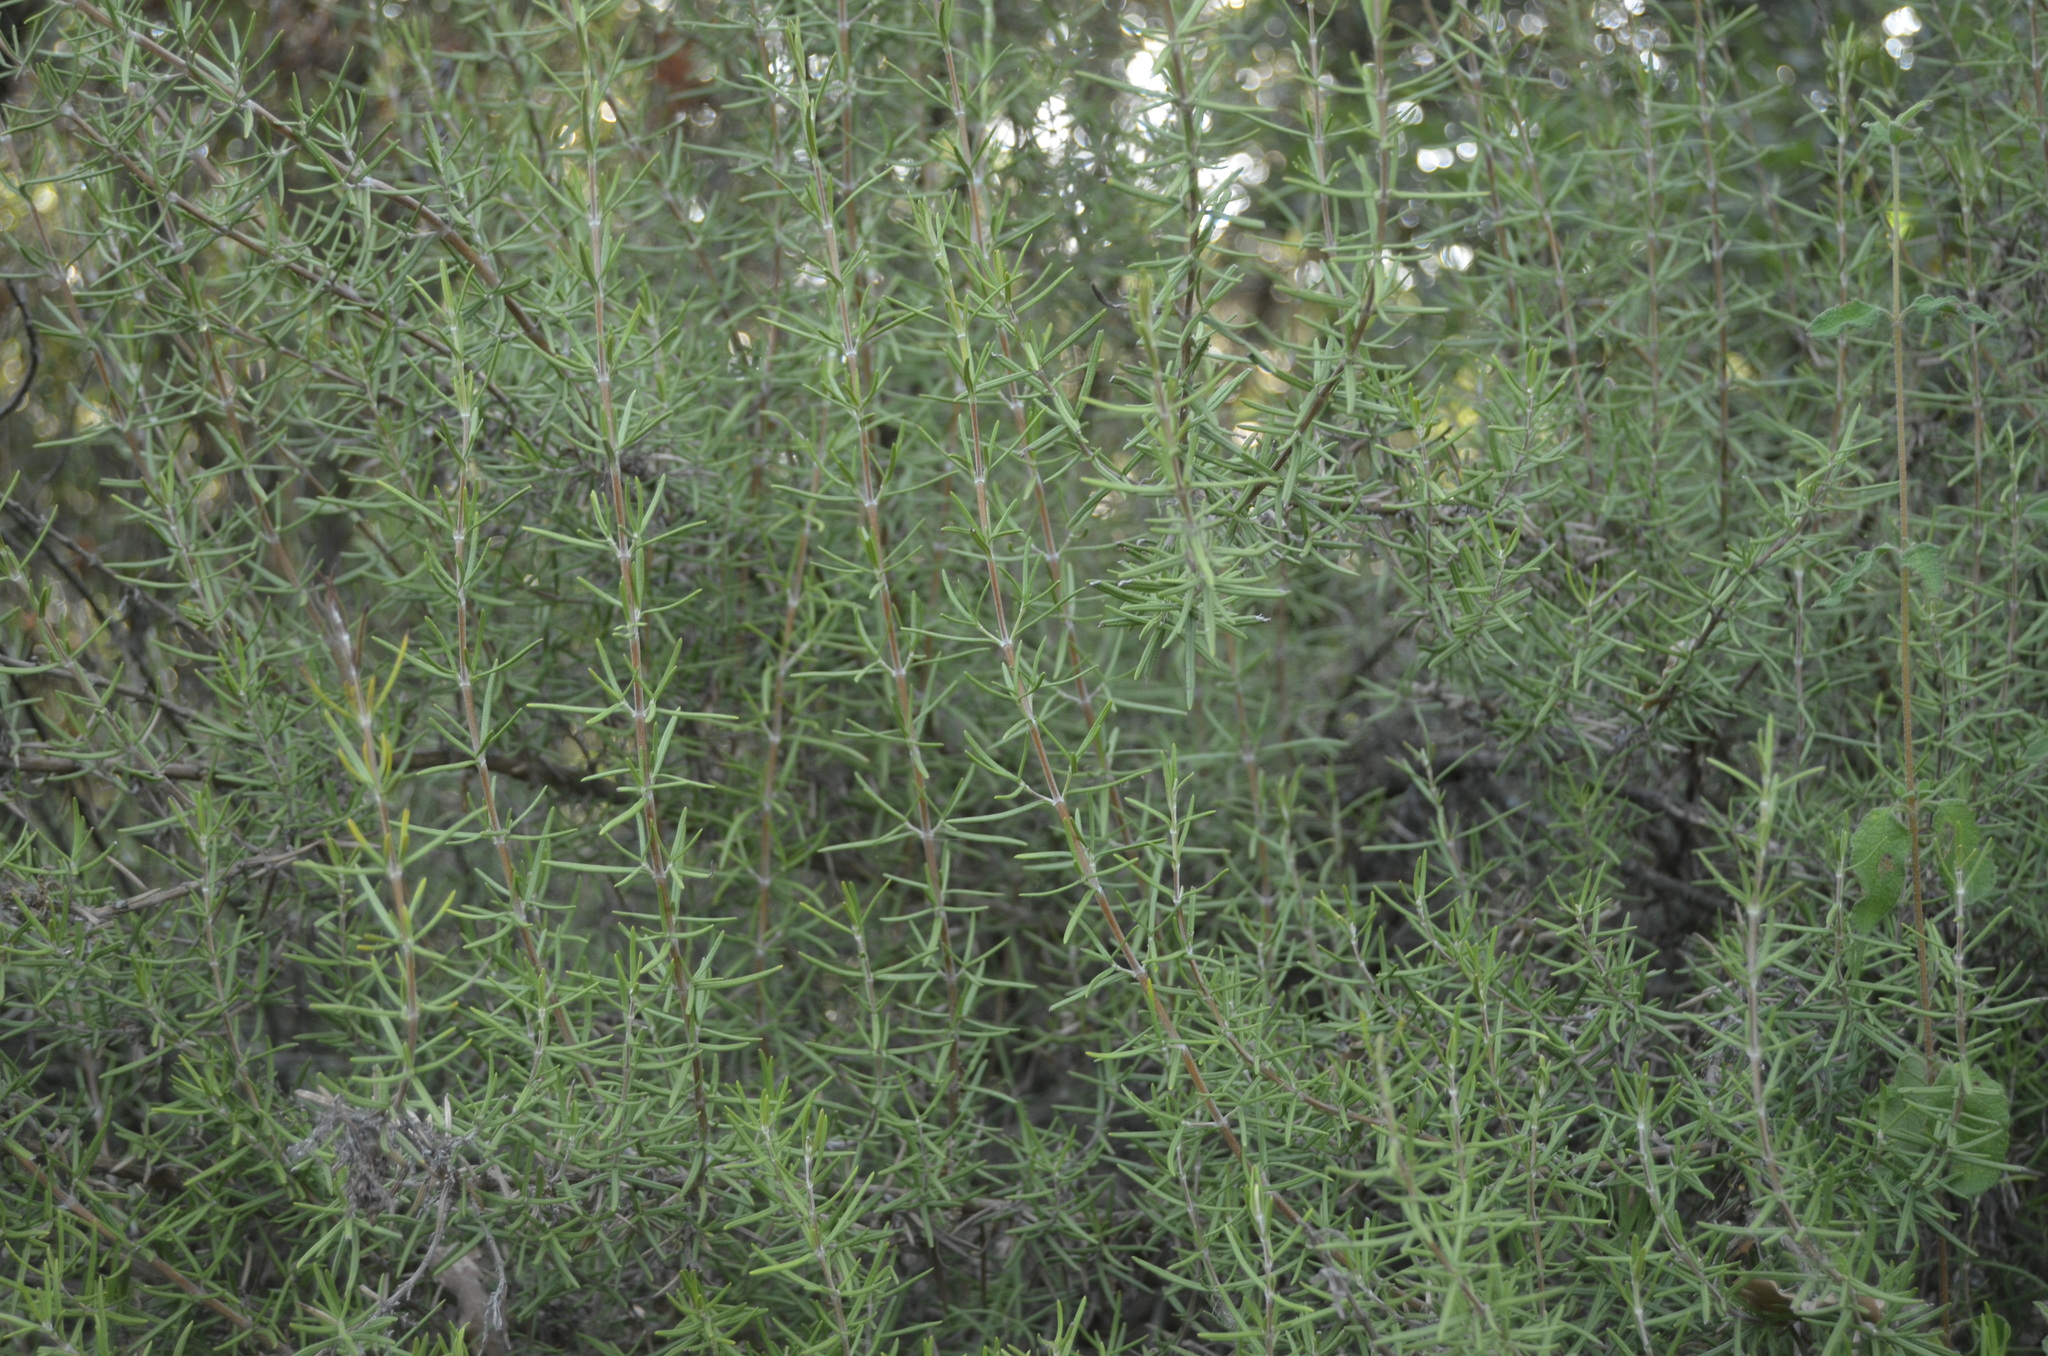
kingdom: Plantae
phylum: Tracheophyta
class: Magnoliopsida
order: Lamiales
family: Lamiaceae
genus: Salvia
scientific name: Salvia rosmarinus
